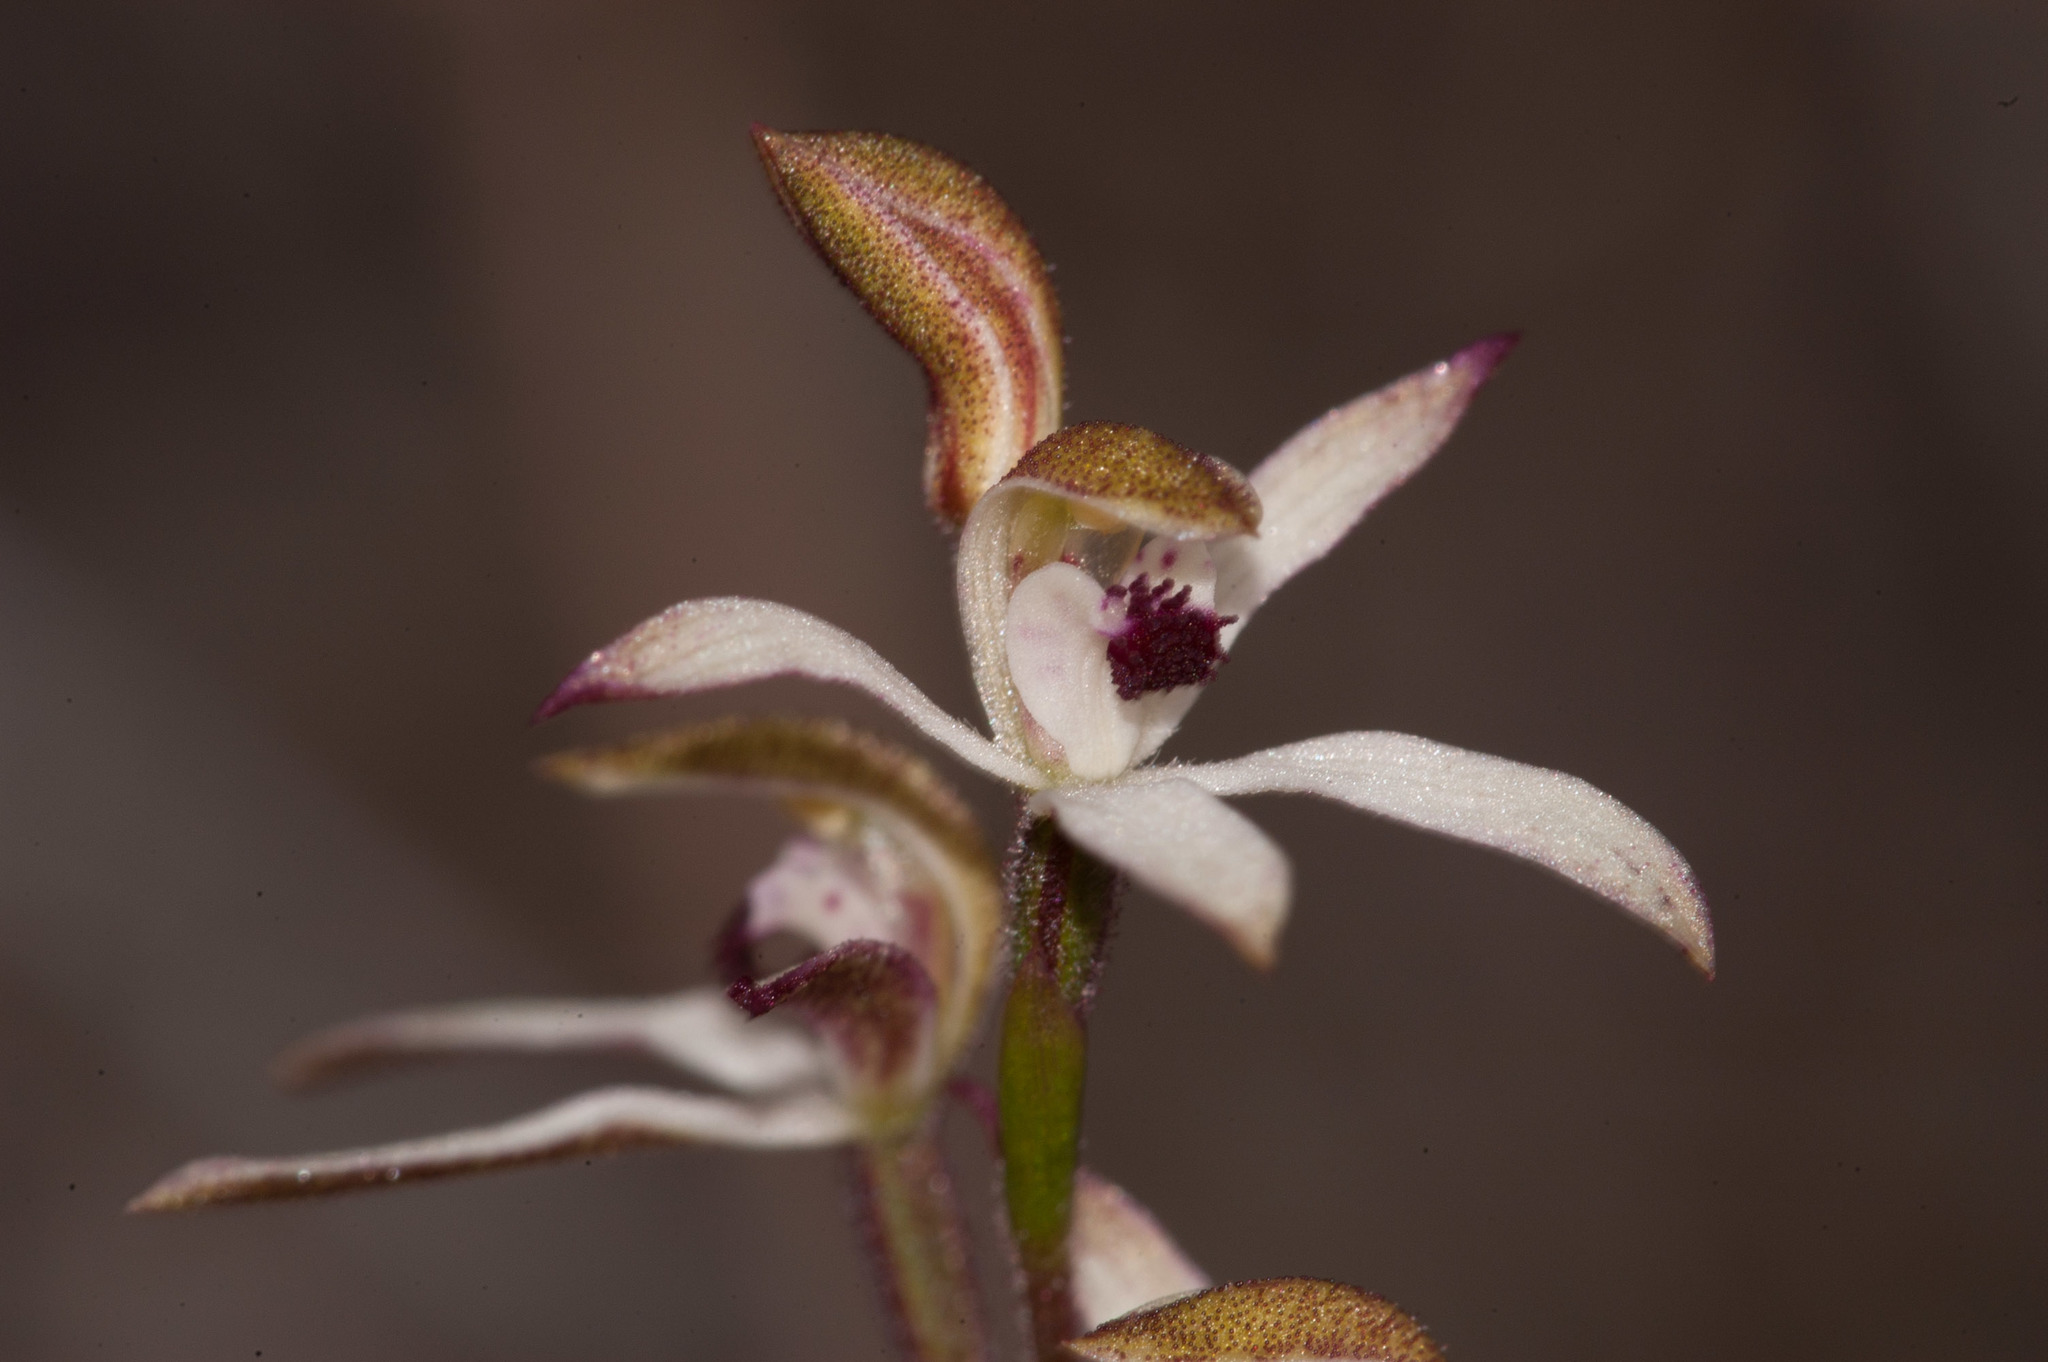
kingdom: Plantae
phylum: Tracheophyta
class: Liliopsida
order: Asparagales
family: Orchidaceae
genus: Caladenia
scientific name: Caladenia cucullata
